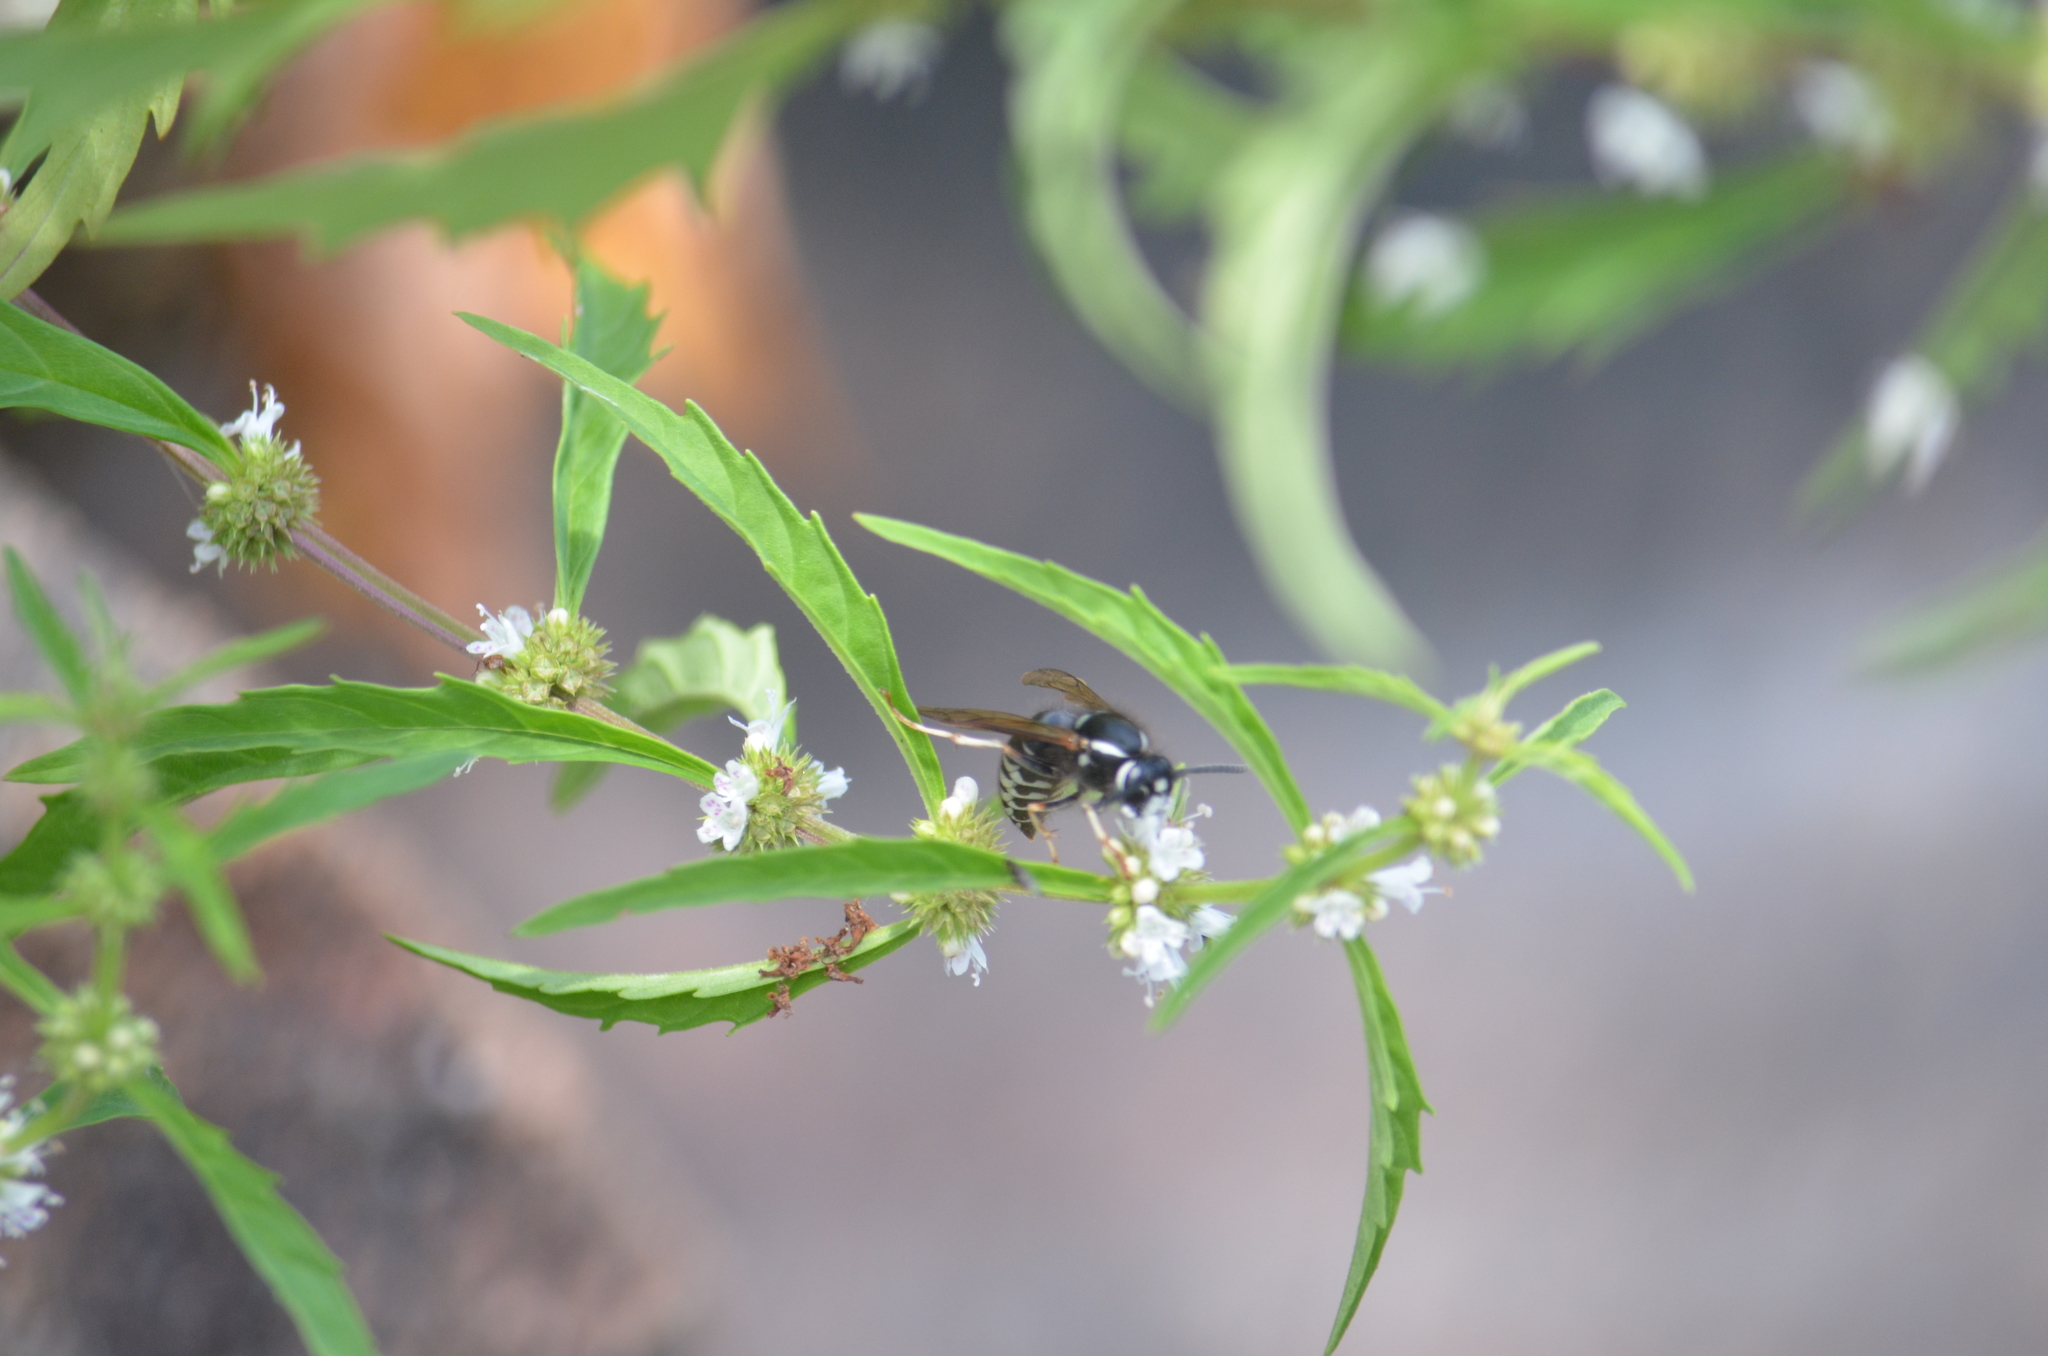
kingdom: Animalia
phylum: Arthropoda
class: Insecta
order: Hymenoptera
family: Vespidae
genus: Vespula
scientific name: Vespula consobrina
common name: Blackjacket
